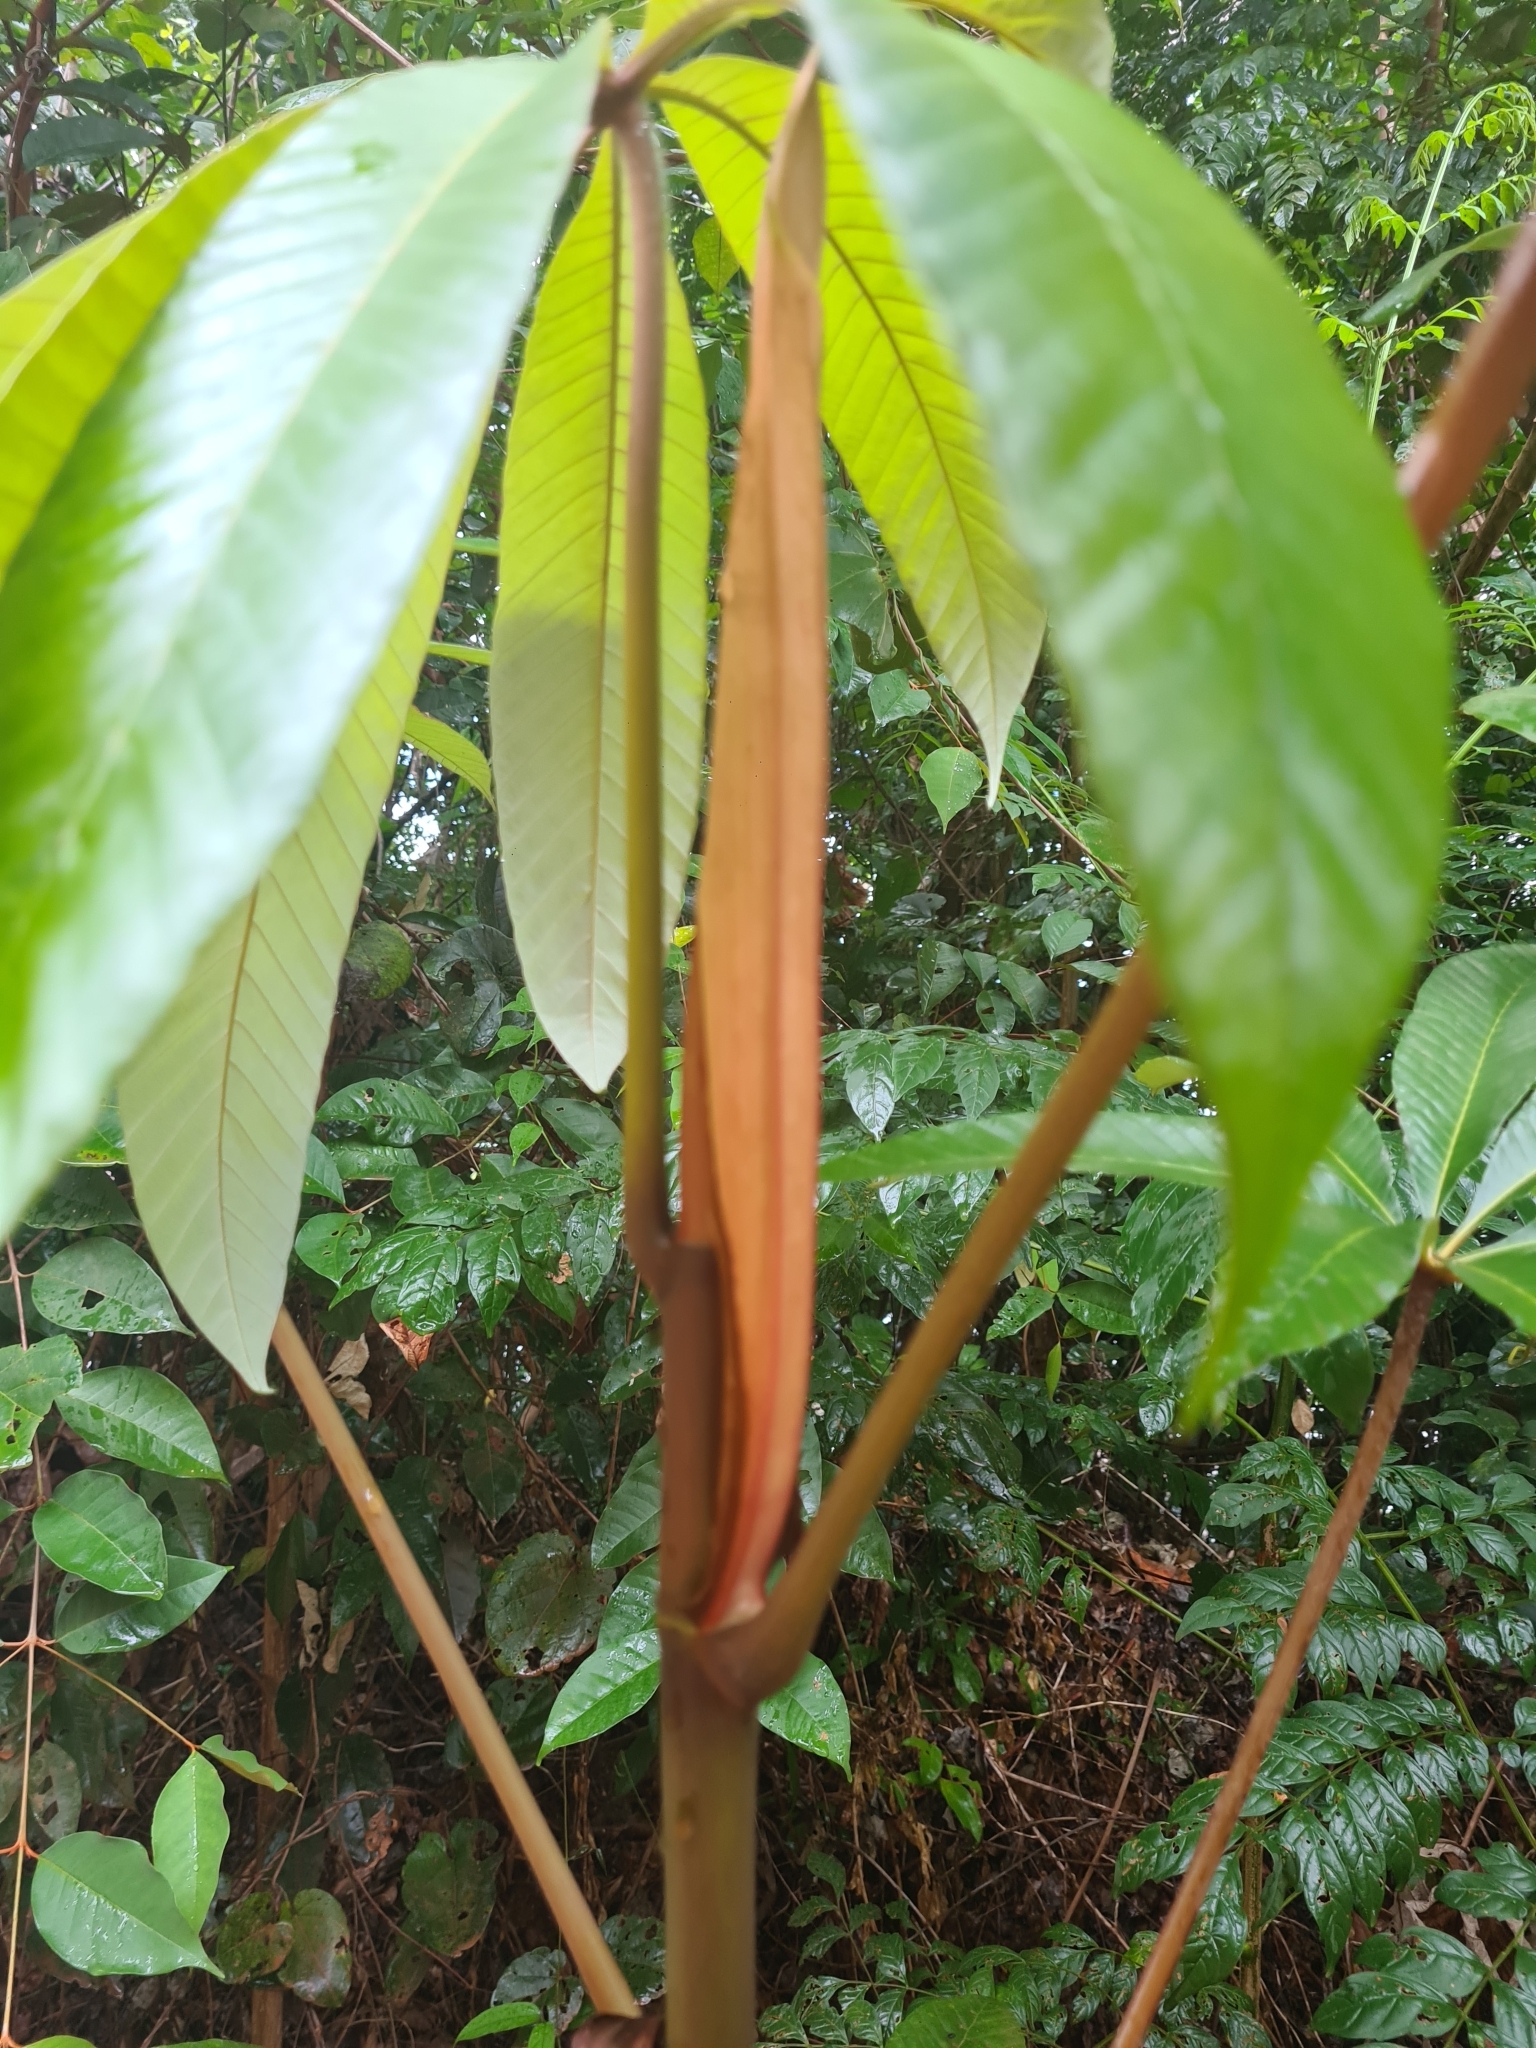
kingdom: Plantae
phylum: Tracheophyta
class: Magnoliopsida
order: Rosales
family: Urticaceae
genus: Cecropia
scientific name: Cecropia sciadophylla
